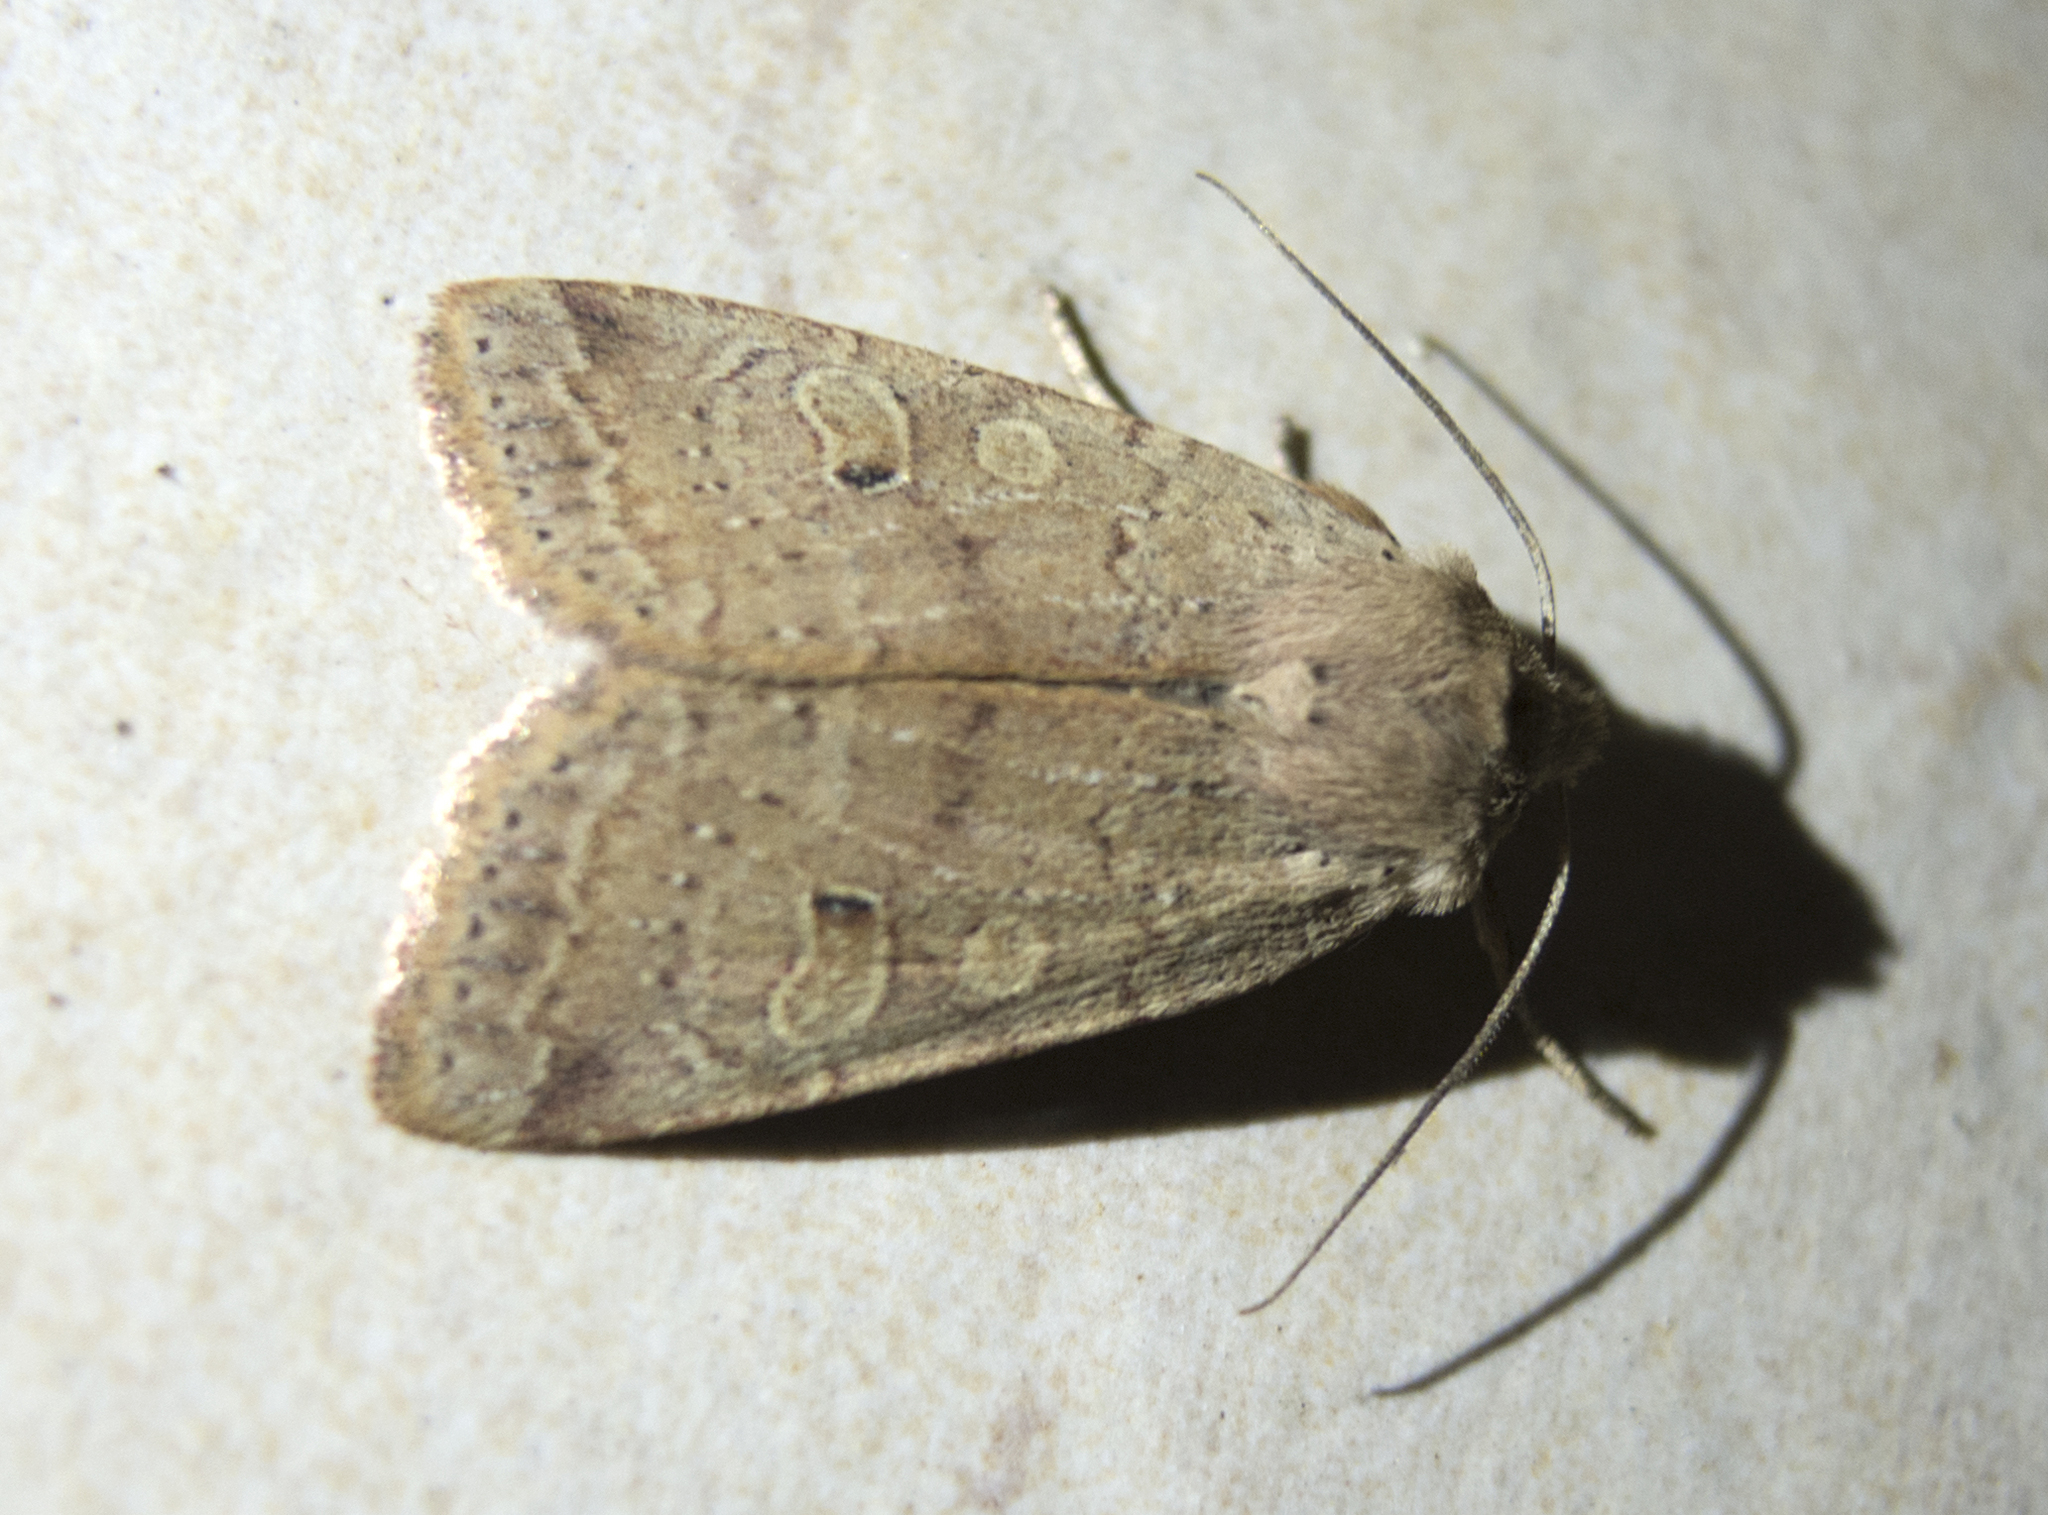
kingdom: Animalia
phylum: Arthropoda
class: Insecta
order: Lepidoptera
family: Noctuidae
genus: Agrochola
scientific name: Agrochola laevis
